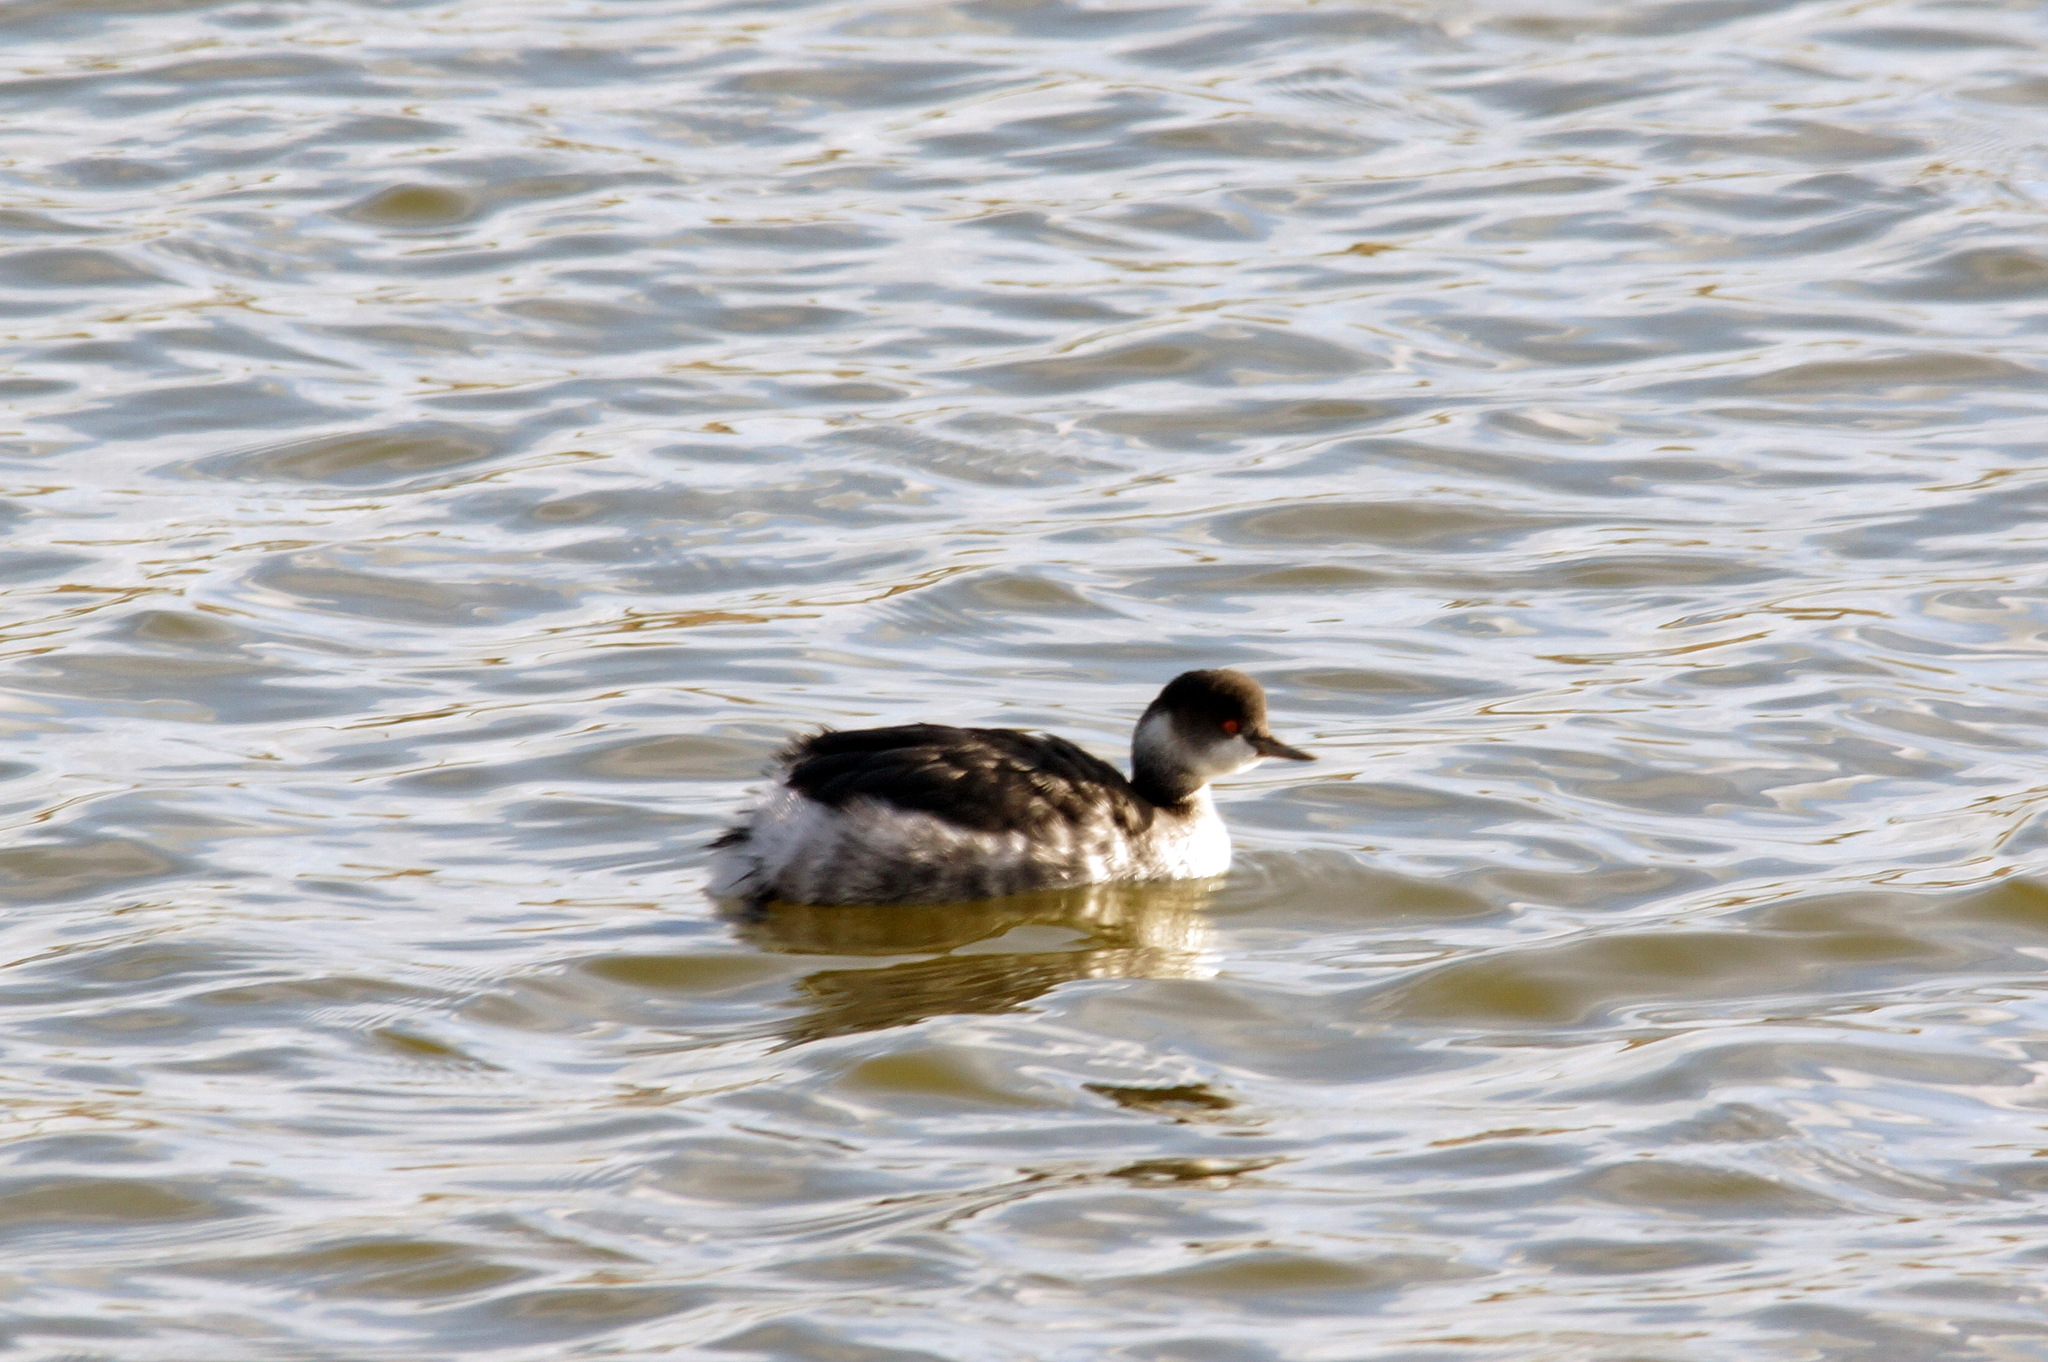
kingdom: Animalia
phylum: Chordata
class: Aves
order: Podicipediformes
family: Podicipedidae
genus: Podiceps
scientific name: Podiceps nigricollis
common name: Black-necked grebe
